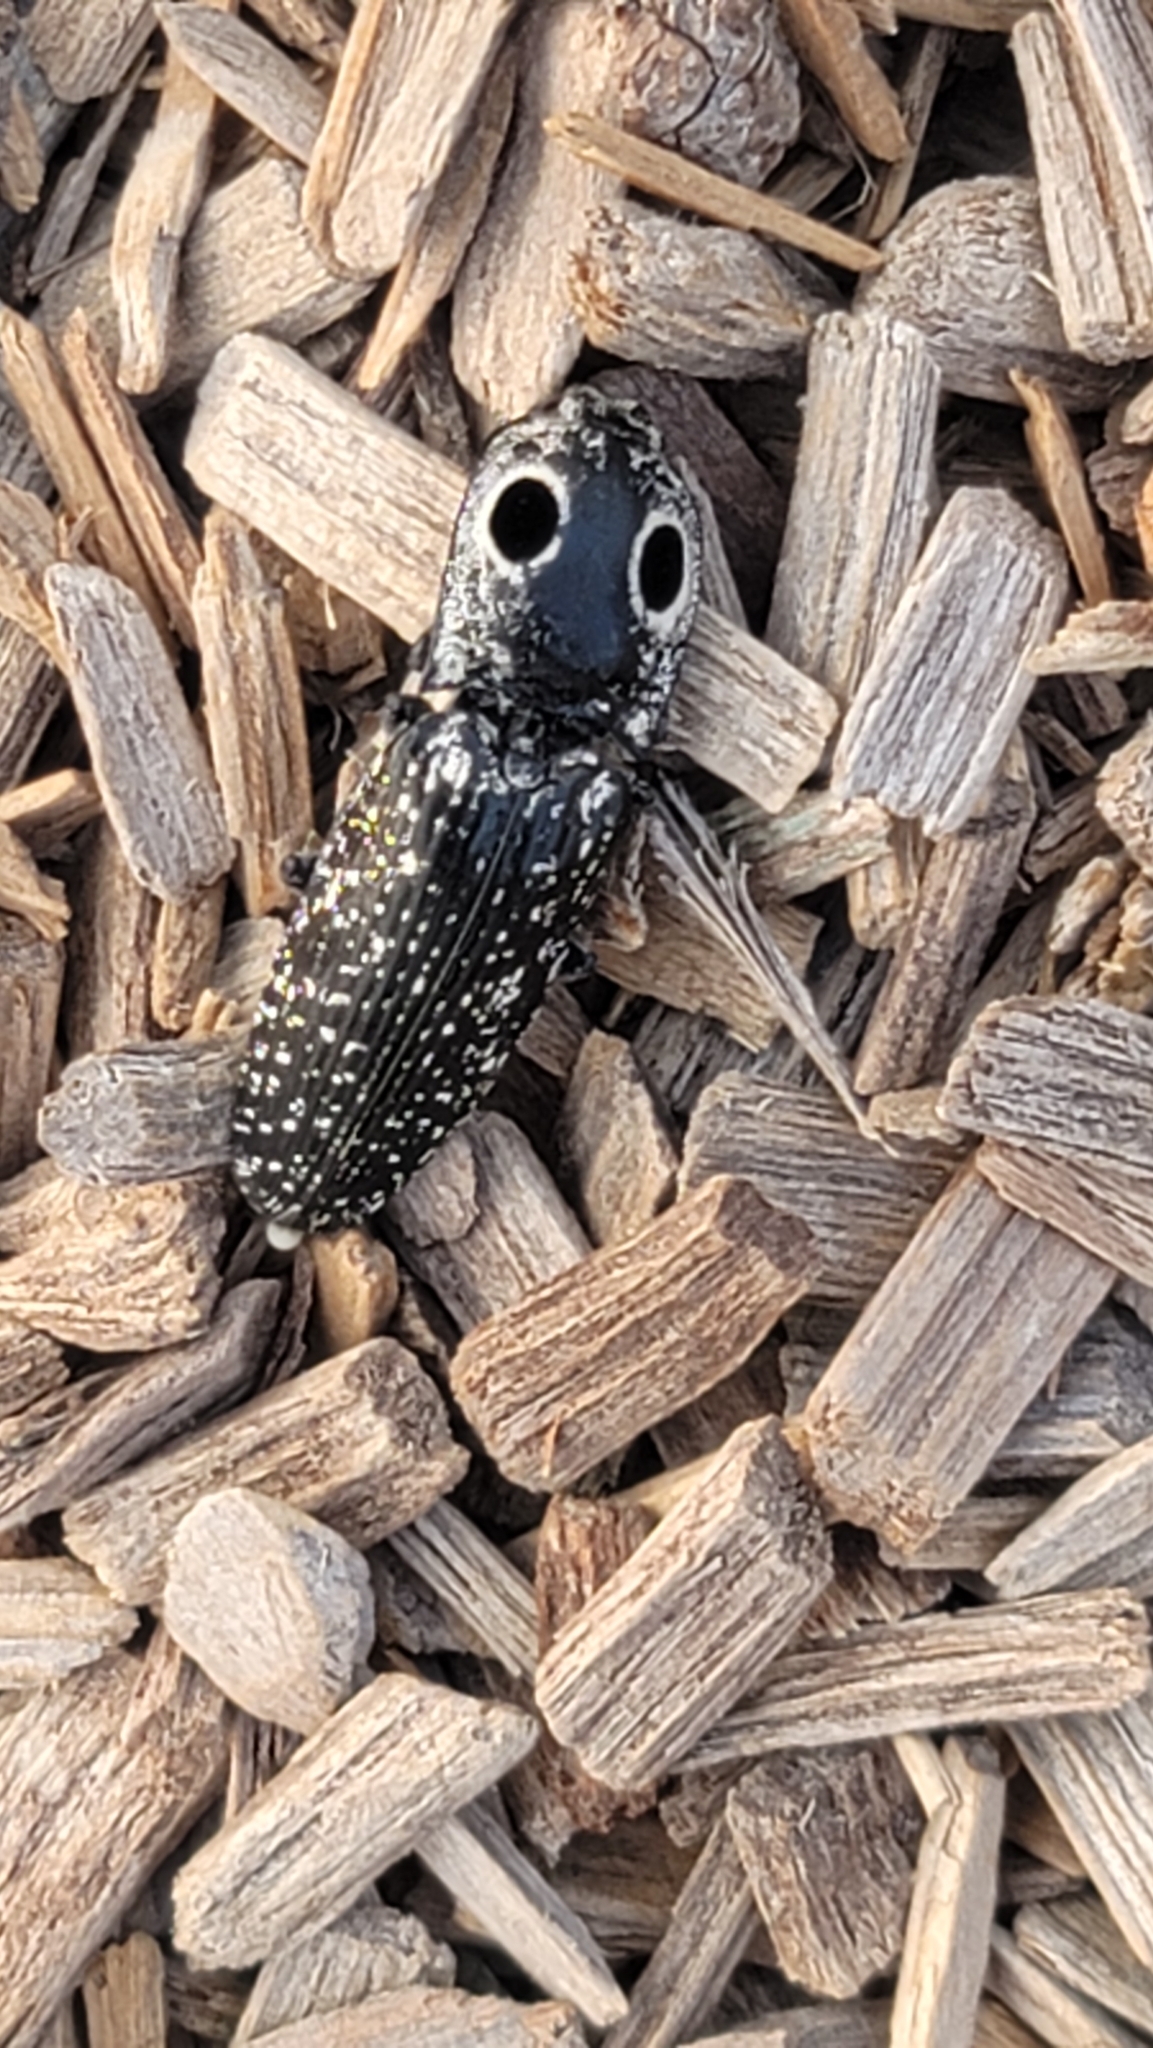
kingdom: Animalia
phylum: Arthropoda
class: Insecta
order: Coleoptera
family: Elateridae
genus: Alaus
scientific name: Alaus oculatus
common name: Eastern eyed click beetle
